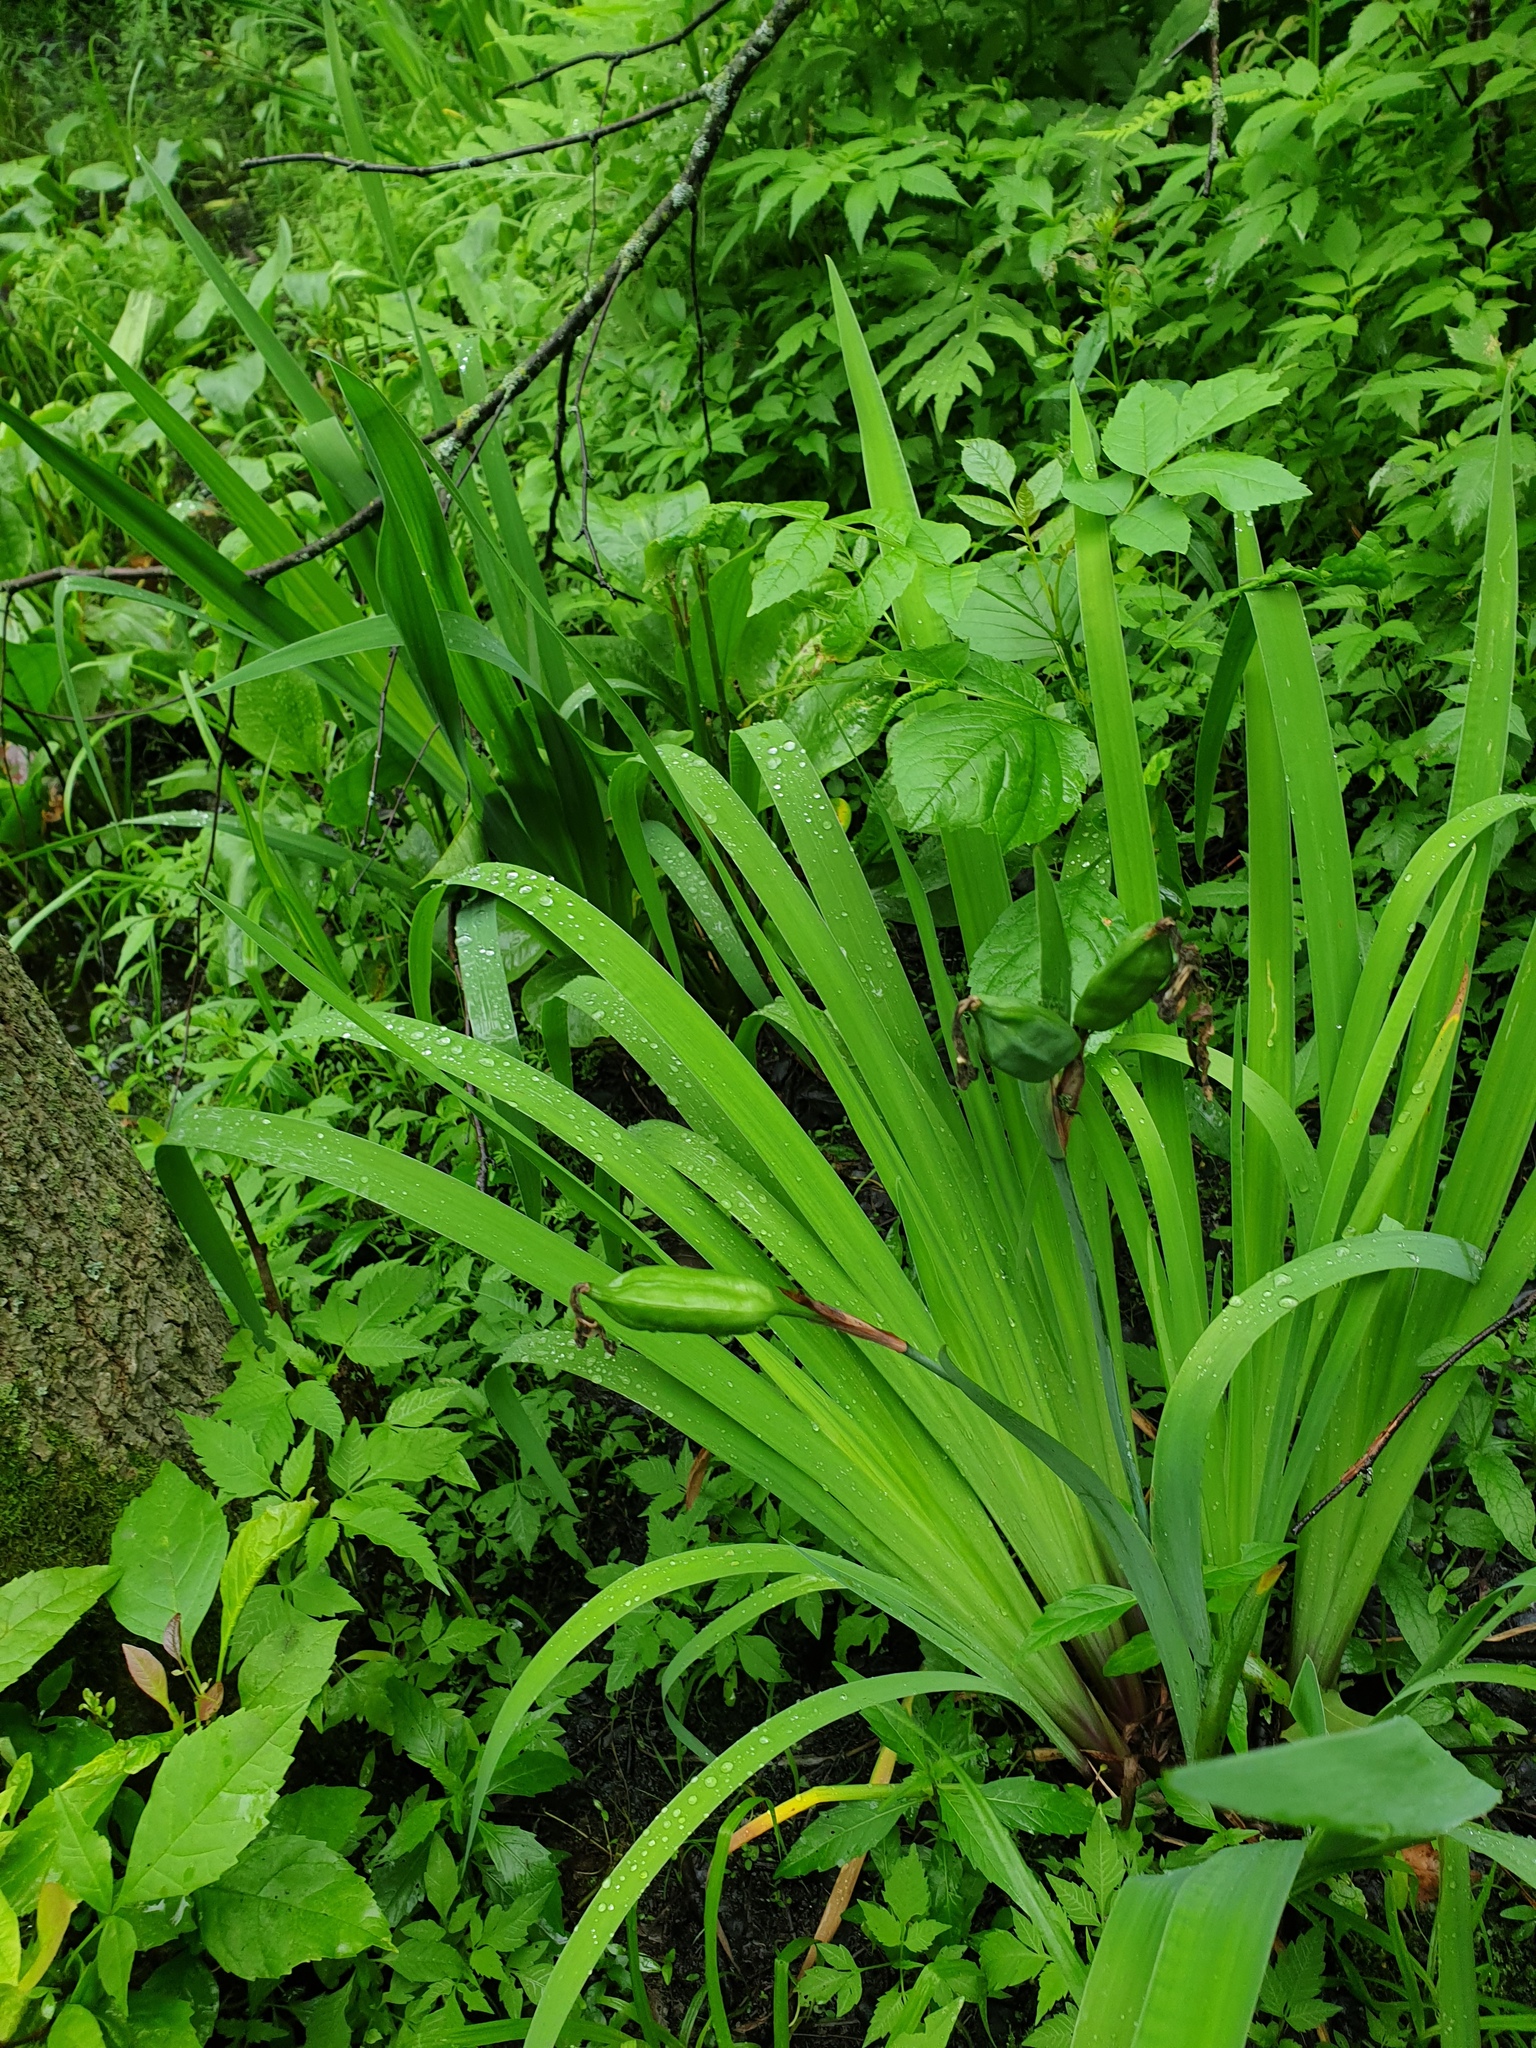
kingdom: Plantae
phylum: Tracheophyta
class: Liliopsida
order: Asparagales
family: Iridaceae
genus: Iris
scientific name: Iris versicolor
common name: Purple iris
